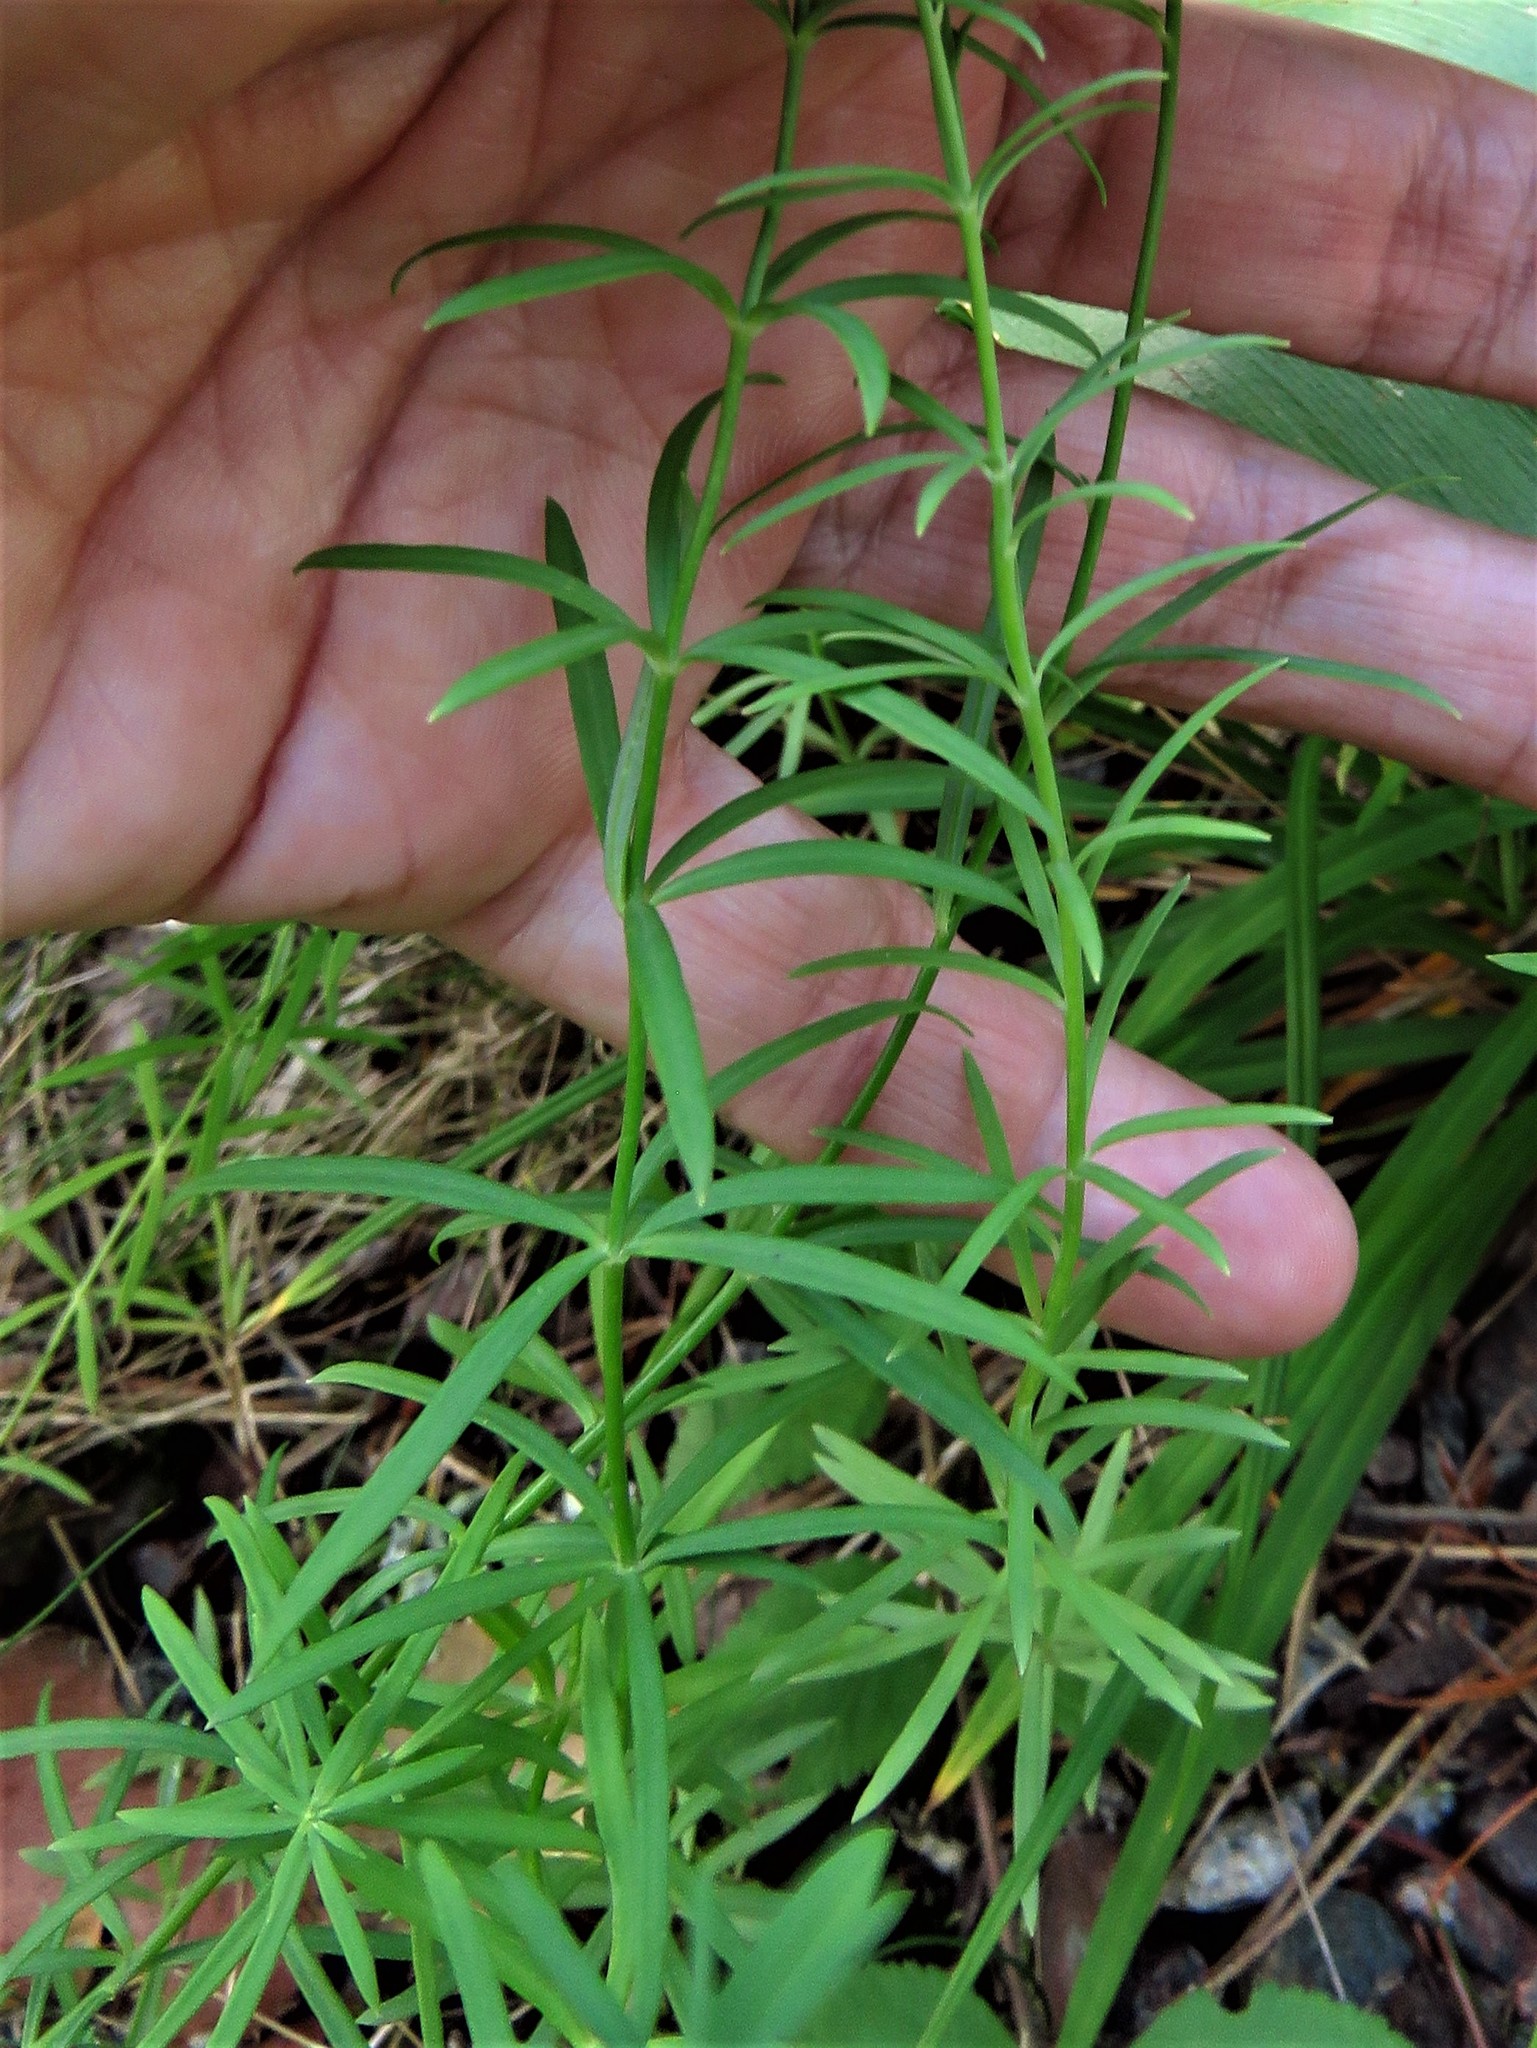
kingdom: Plantae
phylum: Tracheophyta
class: Magnoliopsida
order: Lamiales
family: Plantaginaceae
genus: Linaria
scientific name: Linaria repens
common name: Pale toadflax
